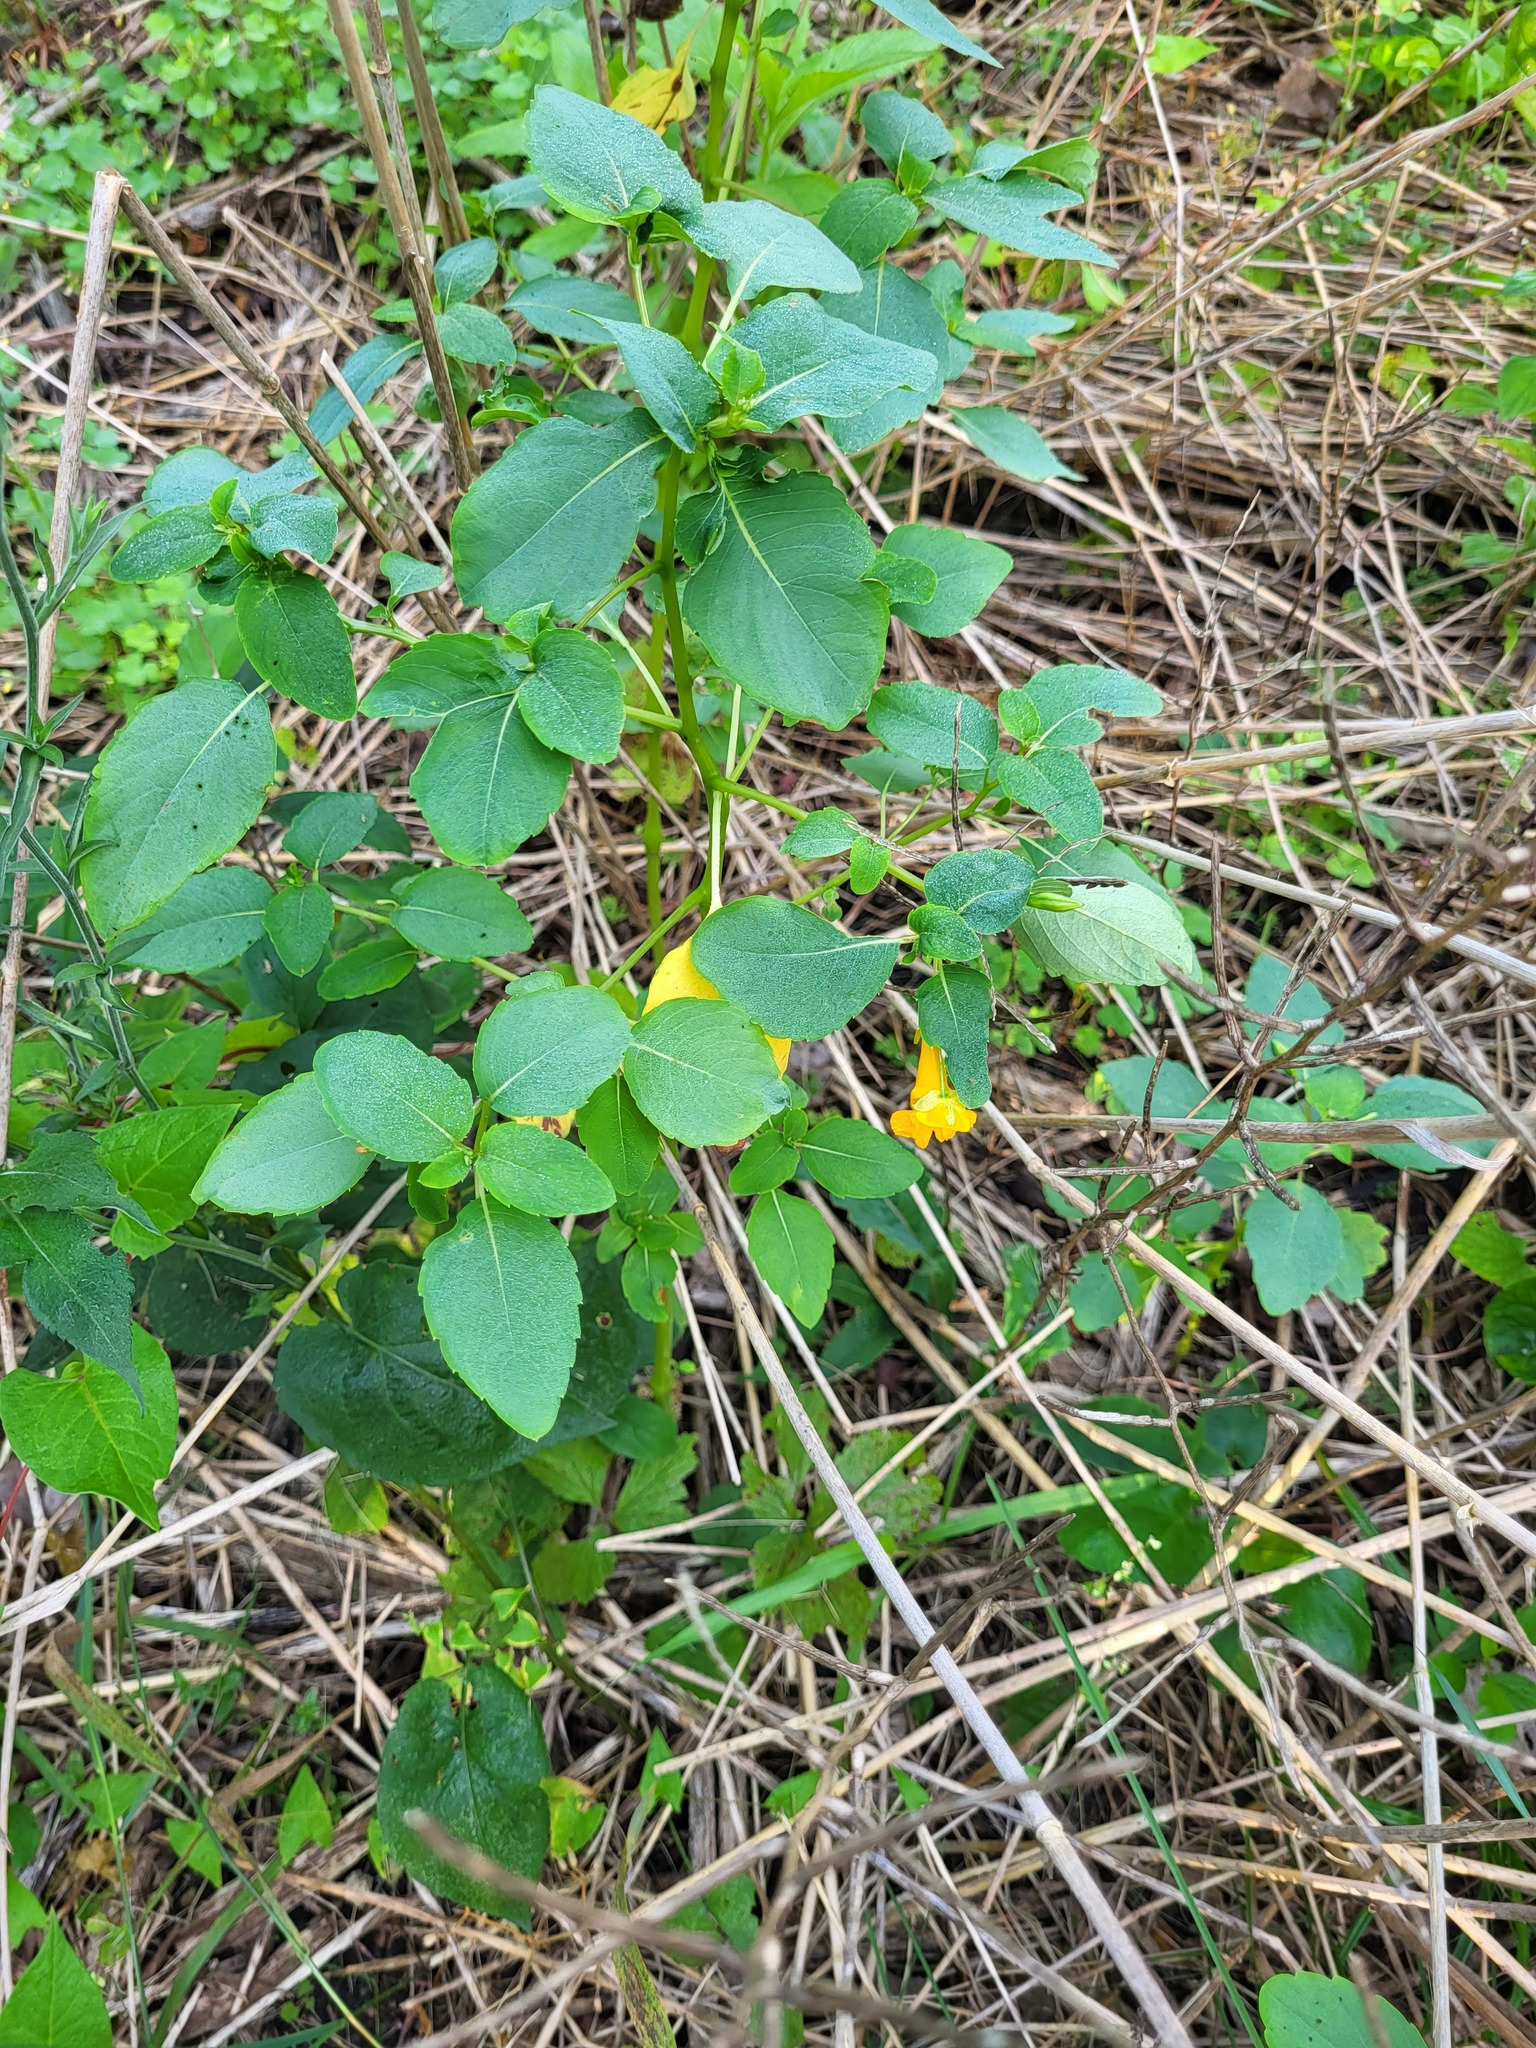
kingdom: Plantae
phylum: Tracheophyta
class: Magnoliopsida
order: Ericales
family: Balsaminaceae
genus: Impatiens
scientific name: Impatiens capensis
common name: Orange balsam
